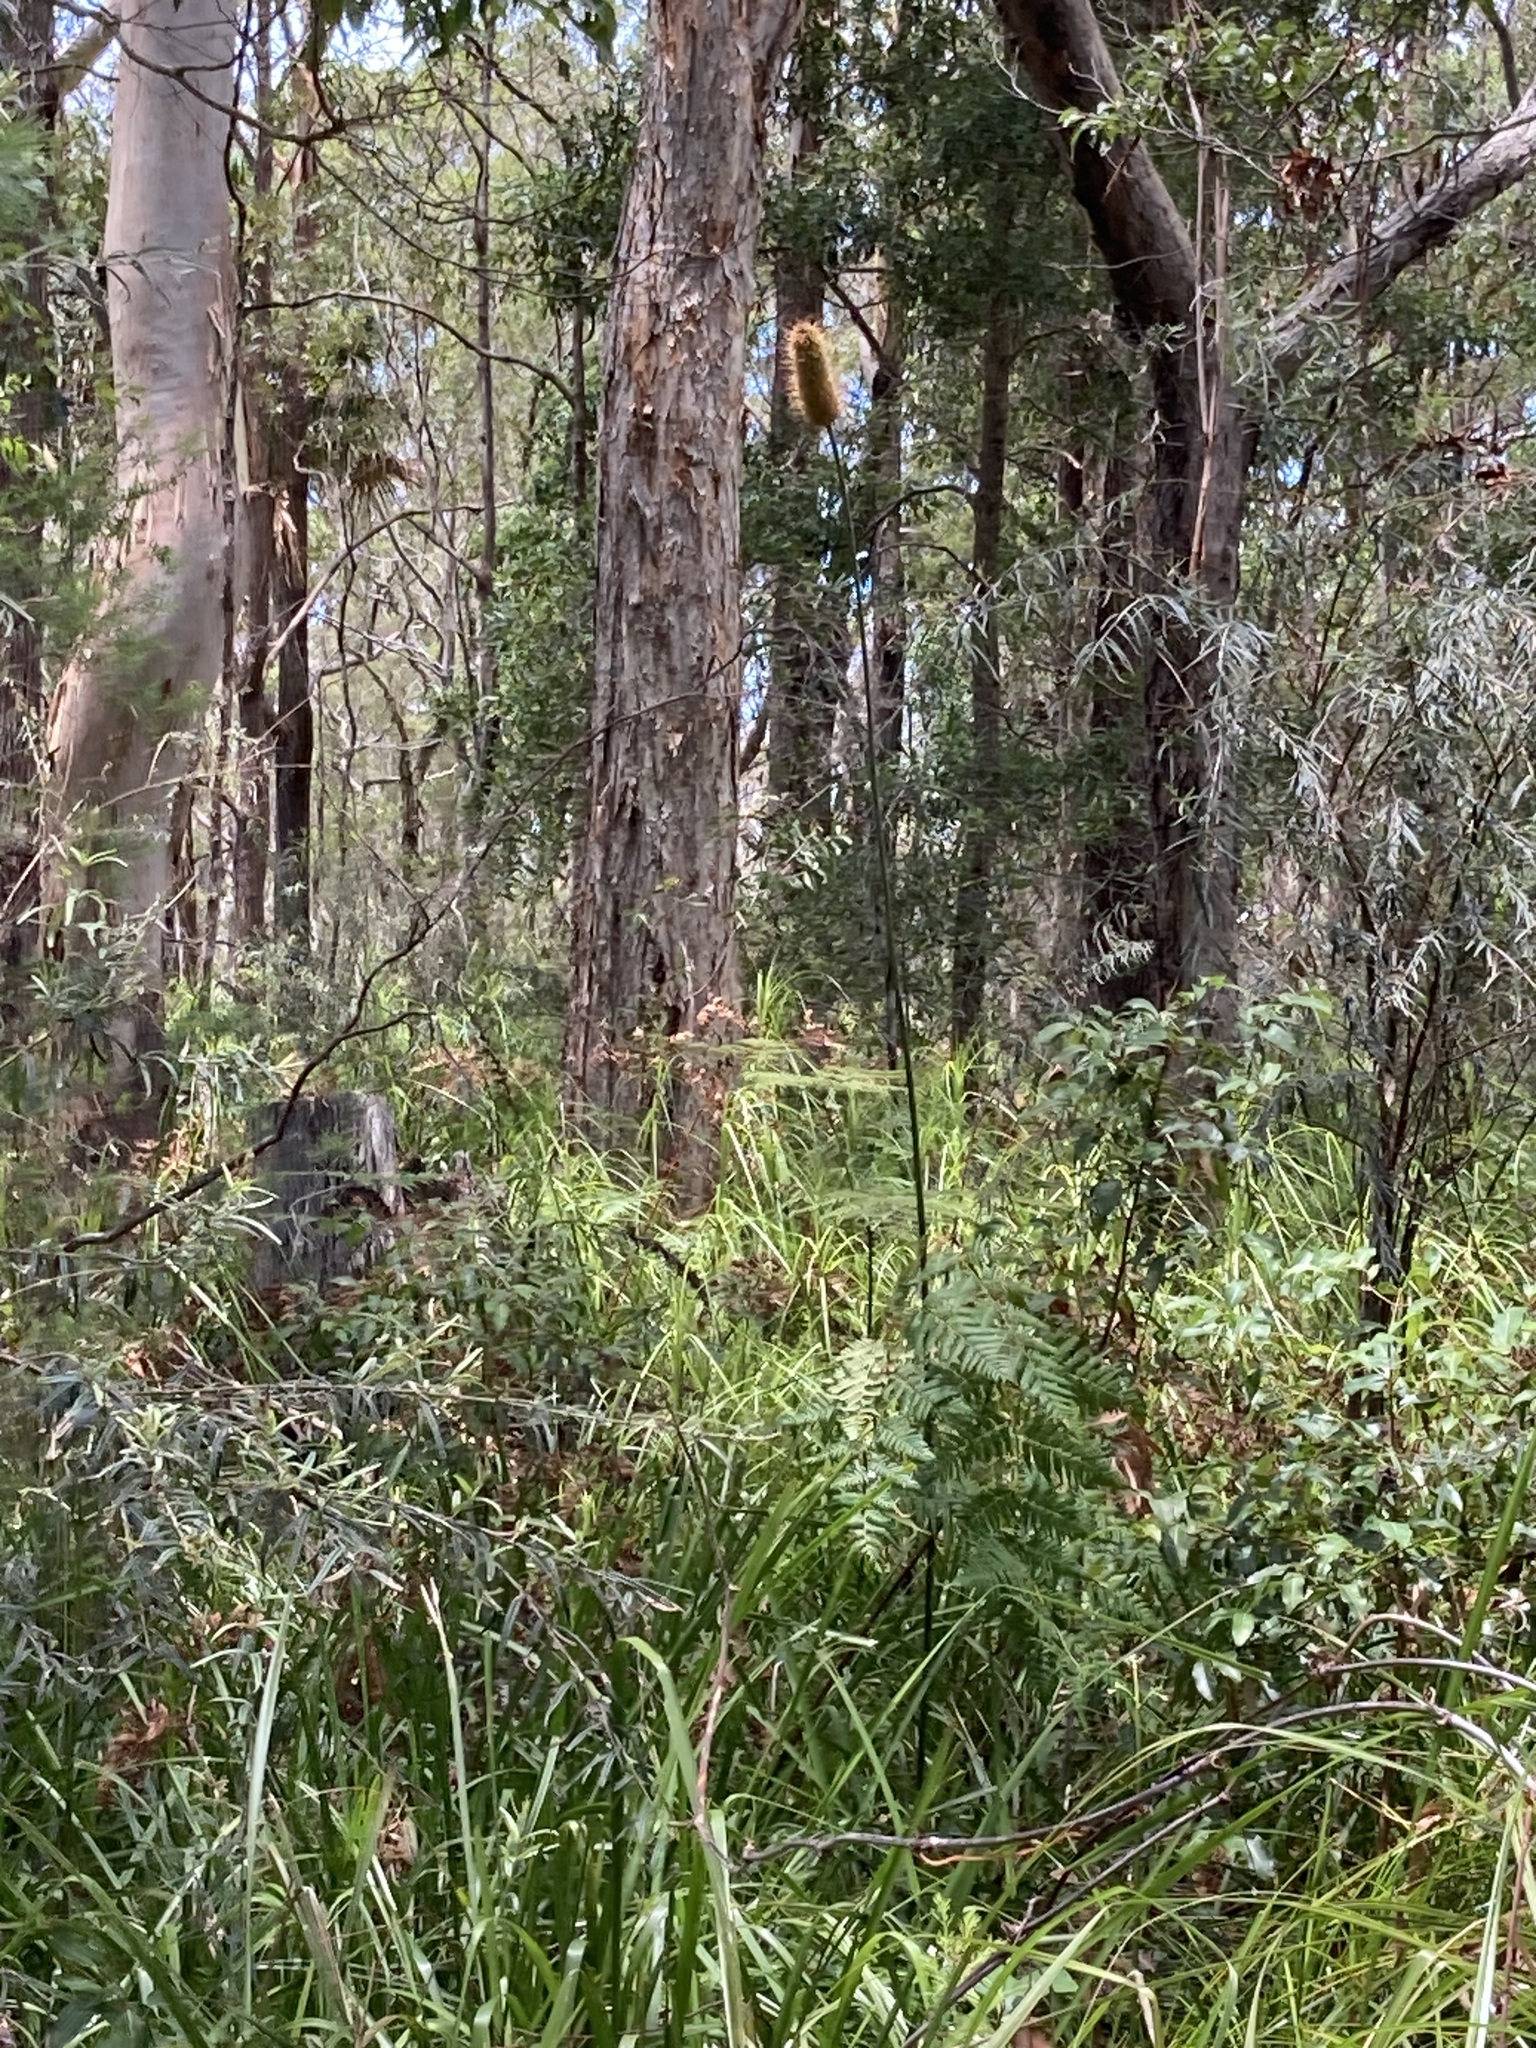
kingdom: Plantae
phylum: Tracheophyta
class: Liliopsida
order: Asparagales
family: Asphodelaceae
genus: Xanthorrhoea
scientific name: Xanthorrhoea macronema
